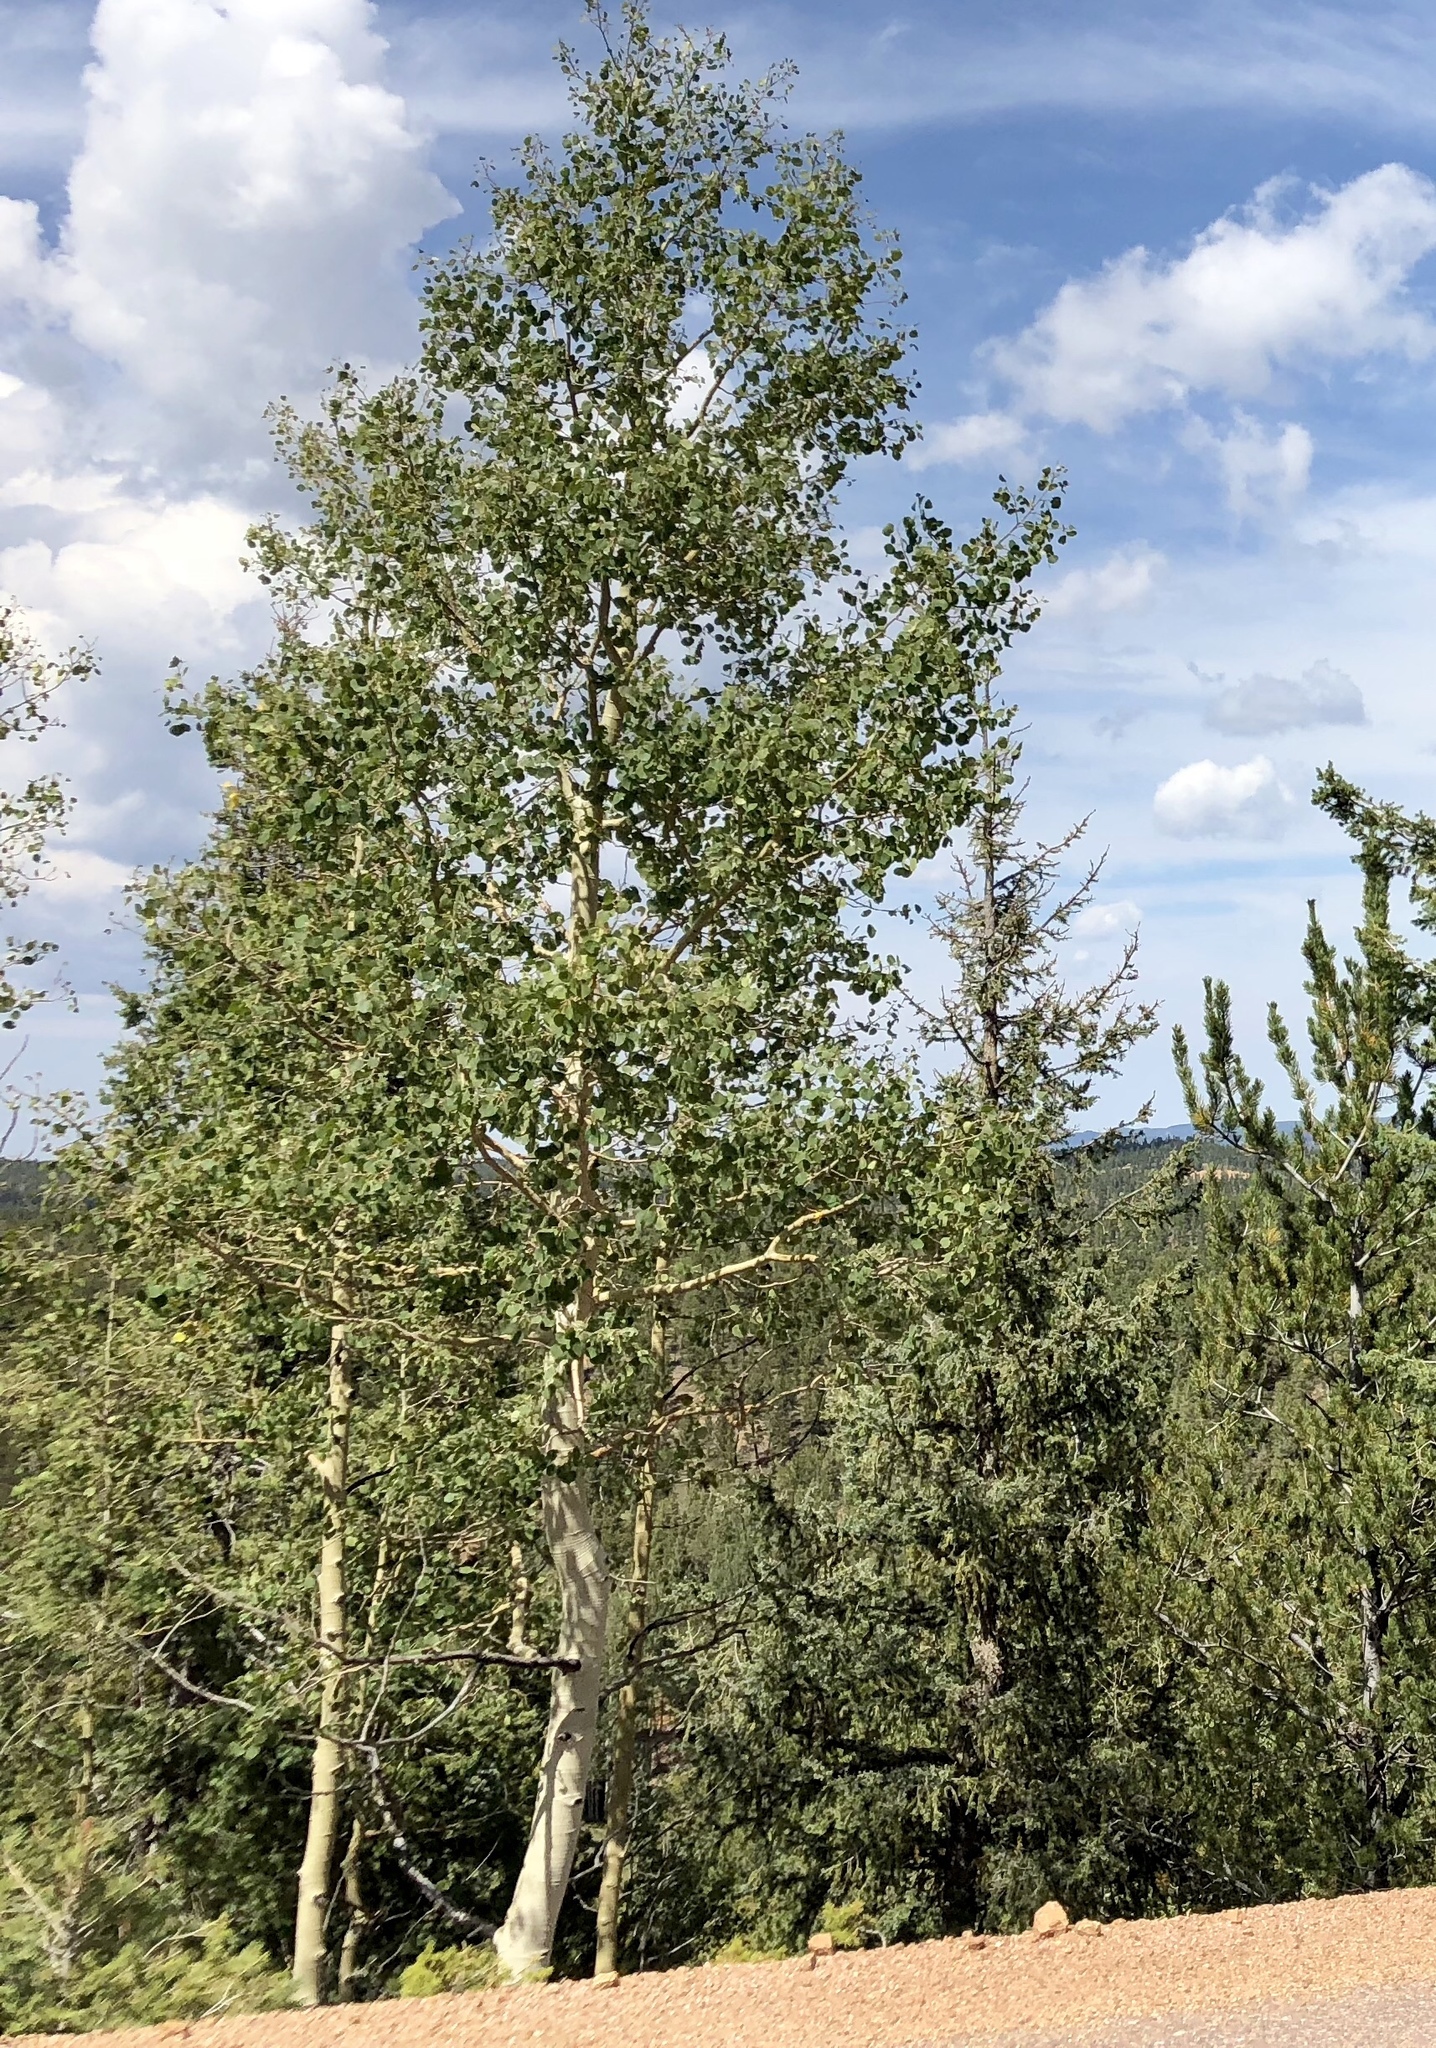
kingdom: Plantae
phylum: Tracheophyta
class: Magnoliopsida
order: Malpighiales
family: Salicaceae
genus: Populus
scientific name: Populus tremuloides
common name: Quaking aspen
